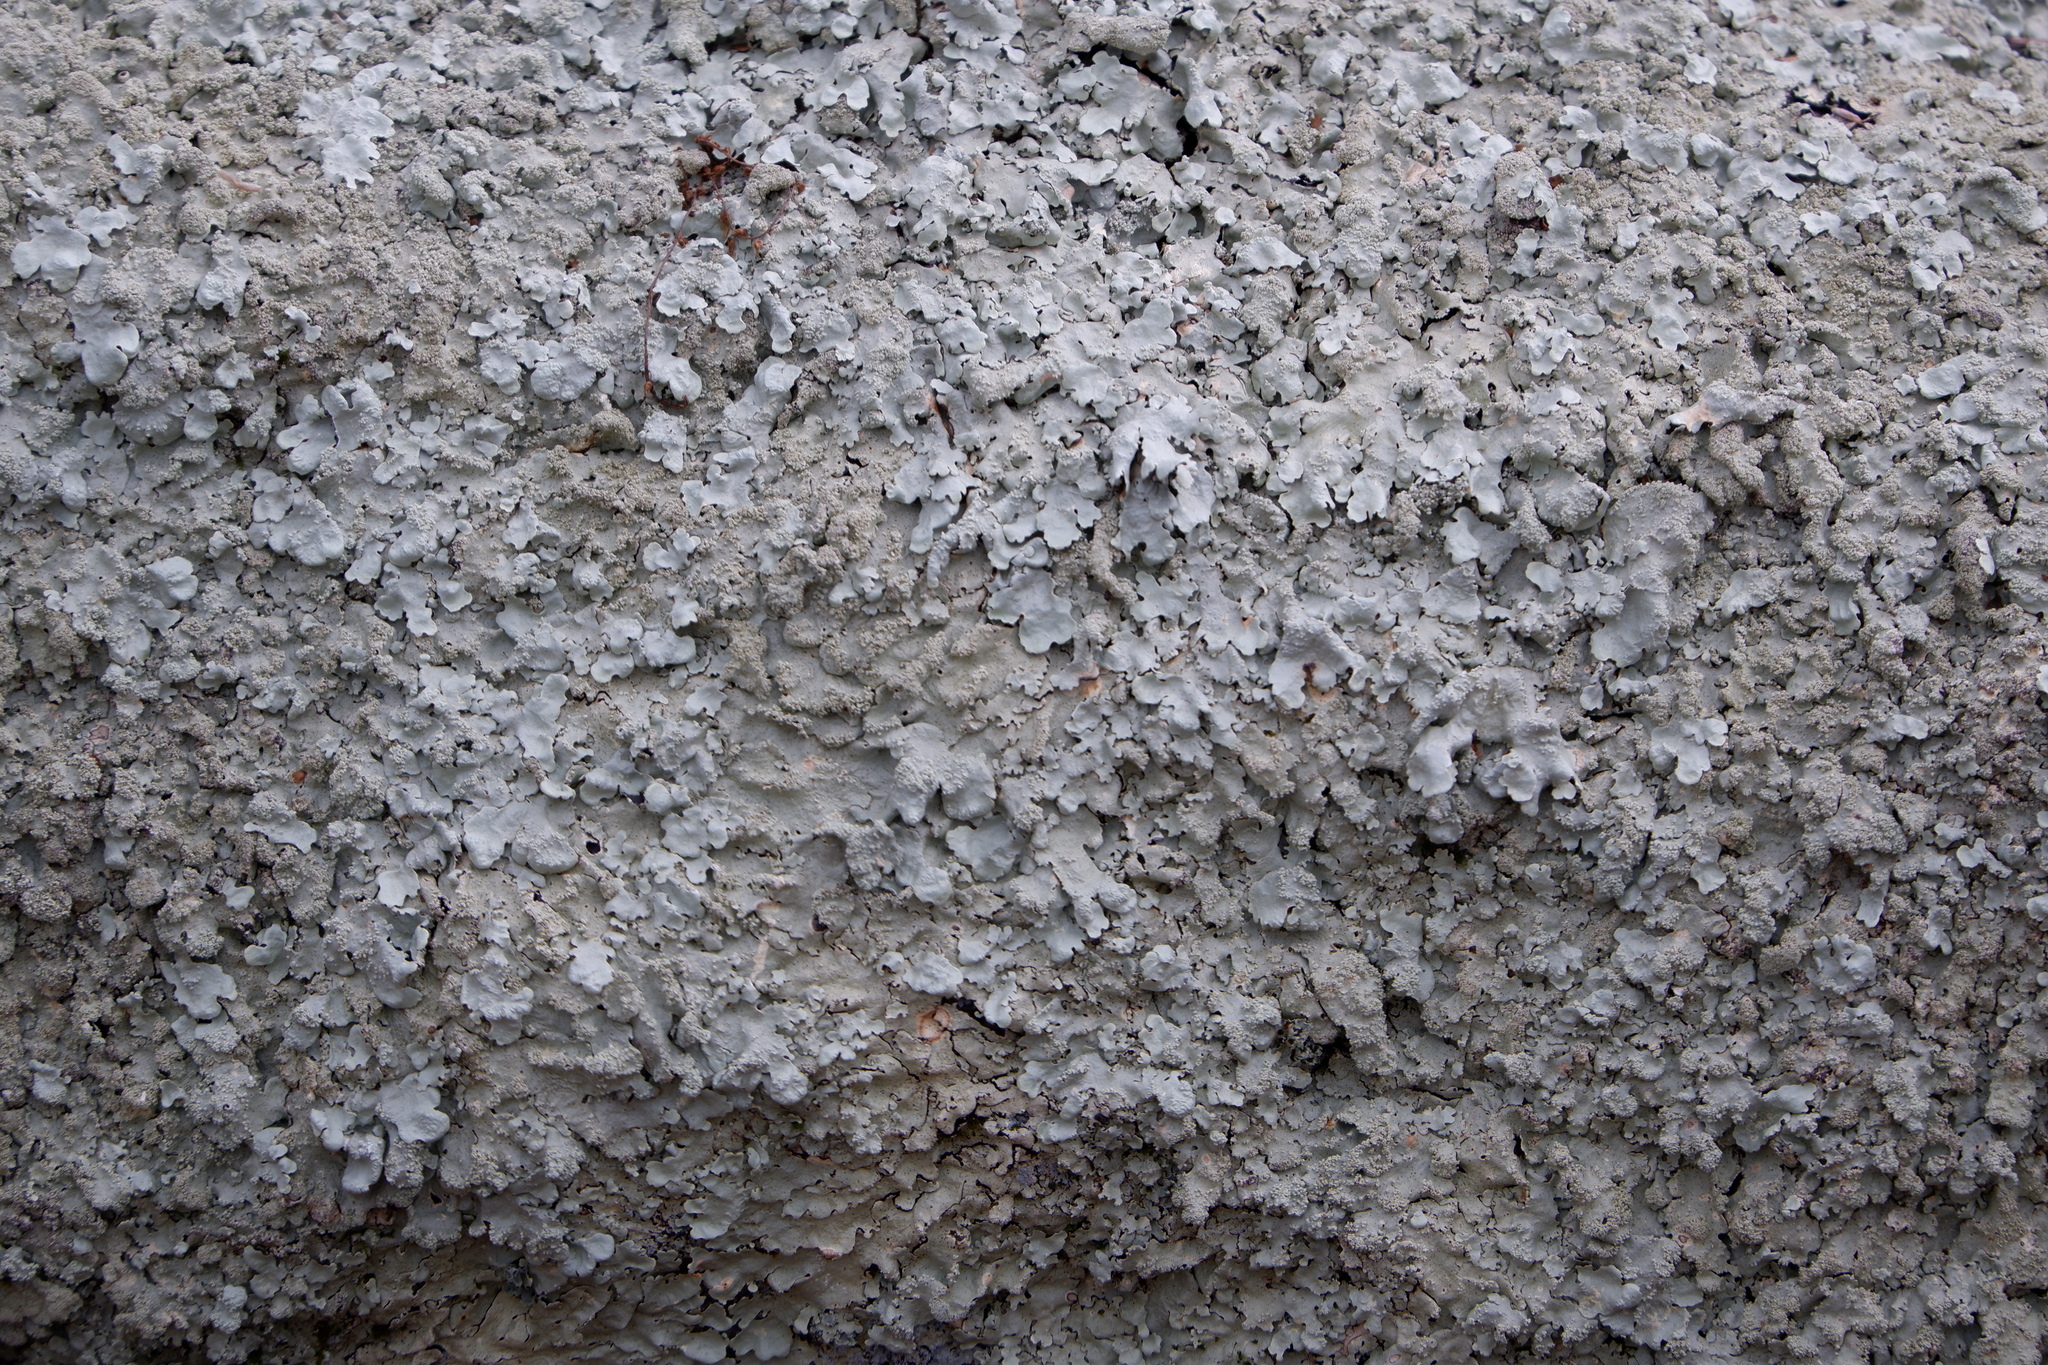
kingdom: Fungi
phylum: Ascomycota
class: Lecanoromycetes
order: Lecanorales
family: Parmeliaceae
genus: Flavoparmelia
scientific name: Flavoparmelia baltimorensis
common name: Rock greenshield
